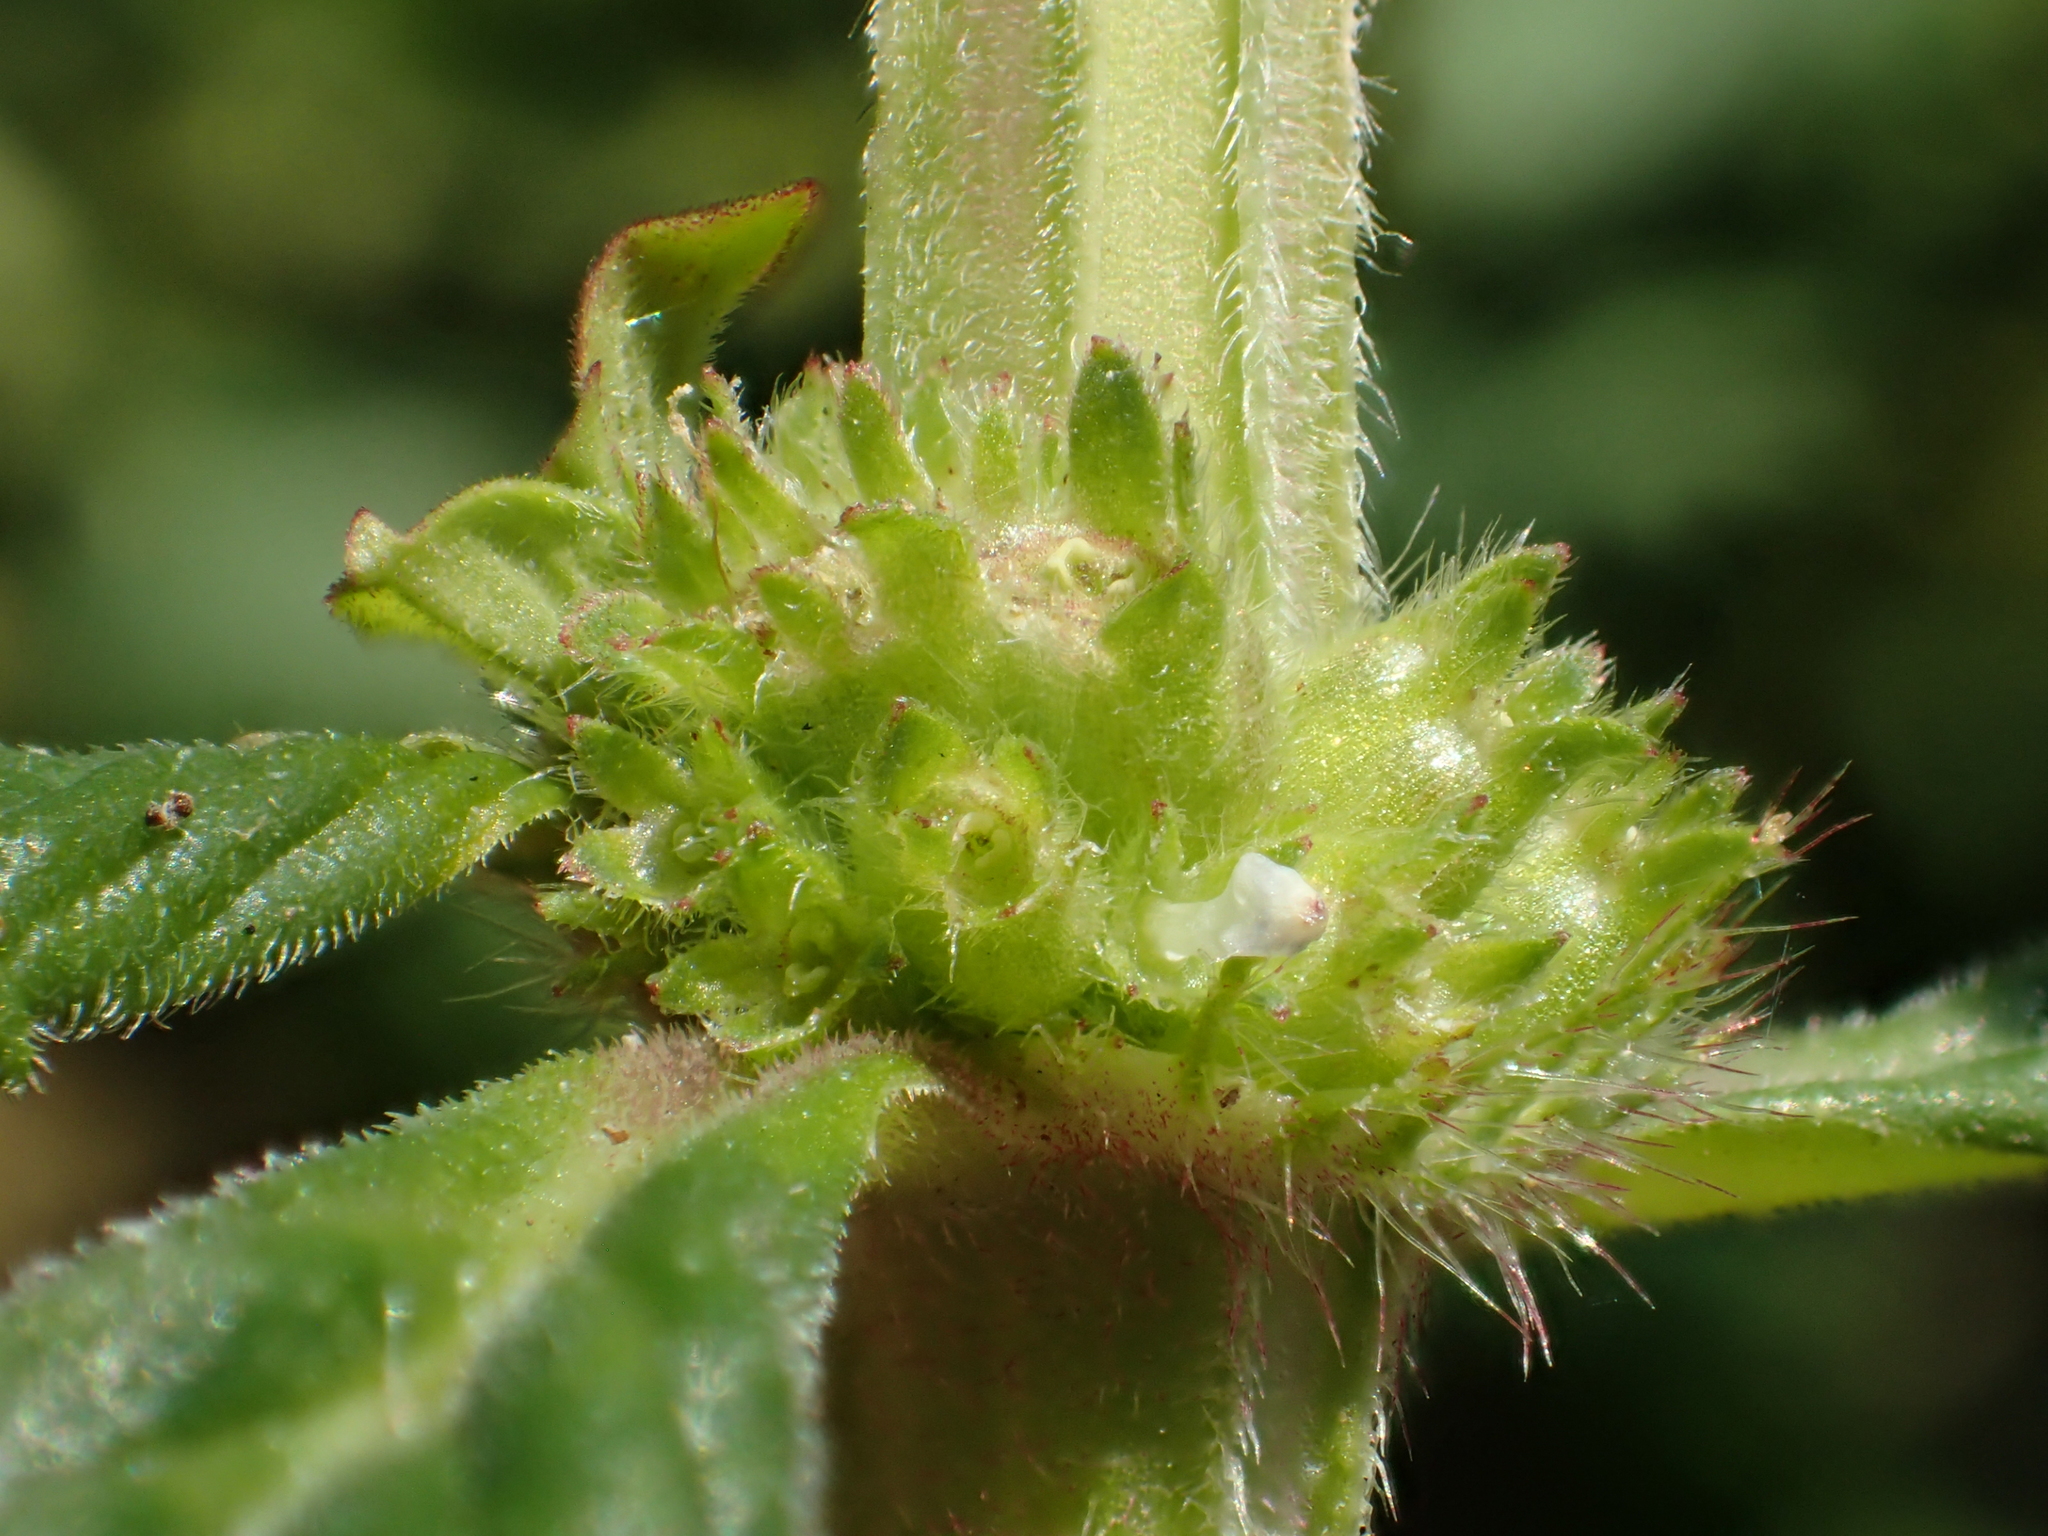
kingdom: Plantae
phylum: Tracheophyta
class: Magnoliopsida
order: Gentianales
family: Rubiaceae
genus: Spermacoce
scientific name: Spermacoce latifolia
